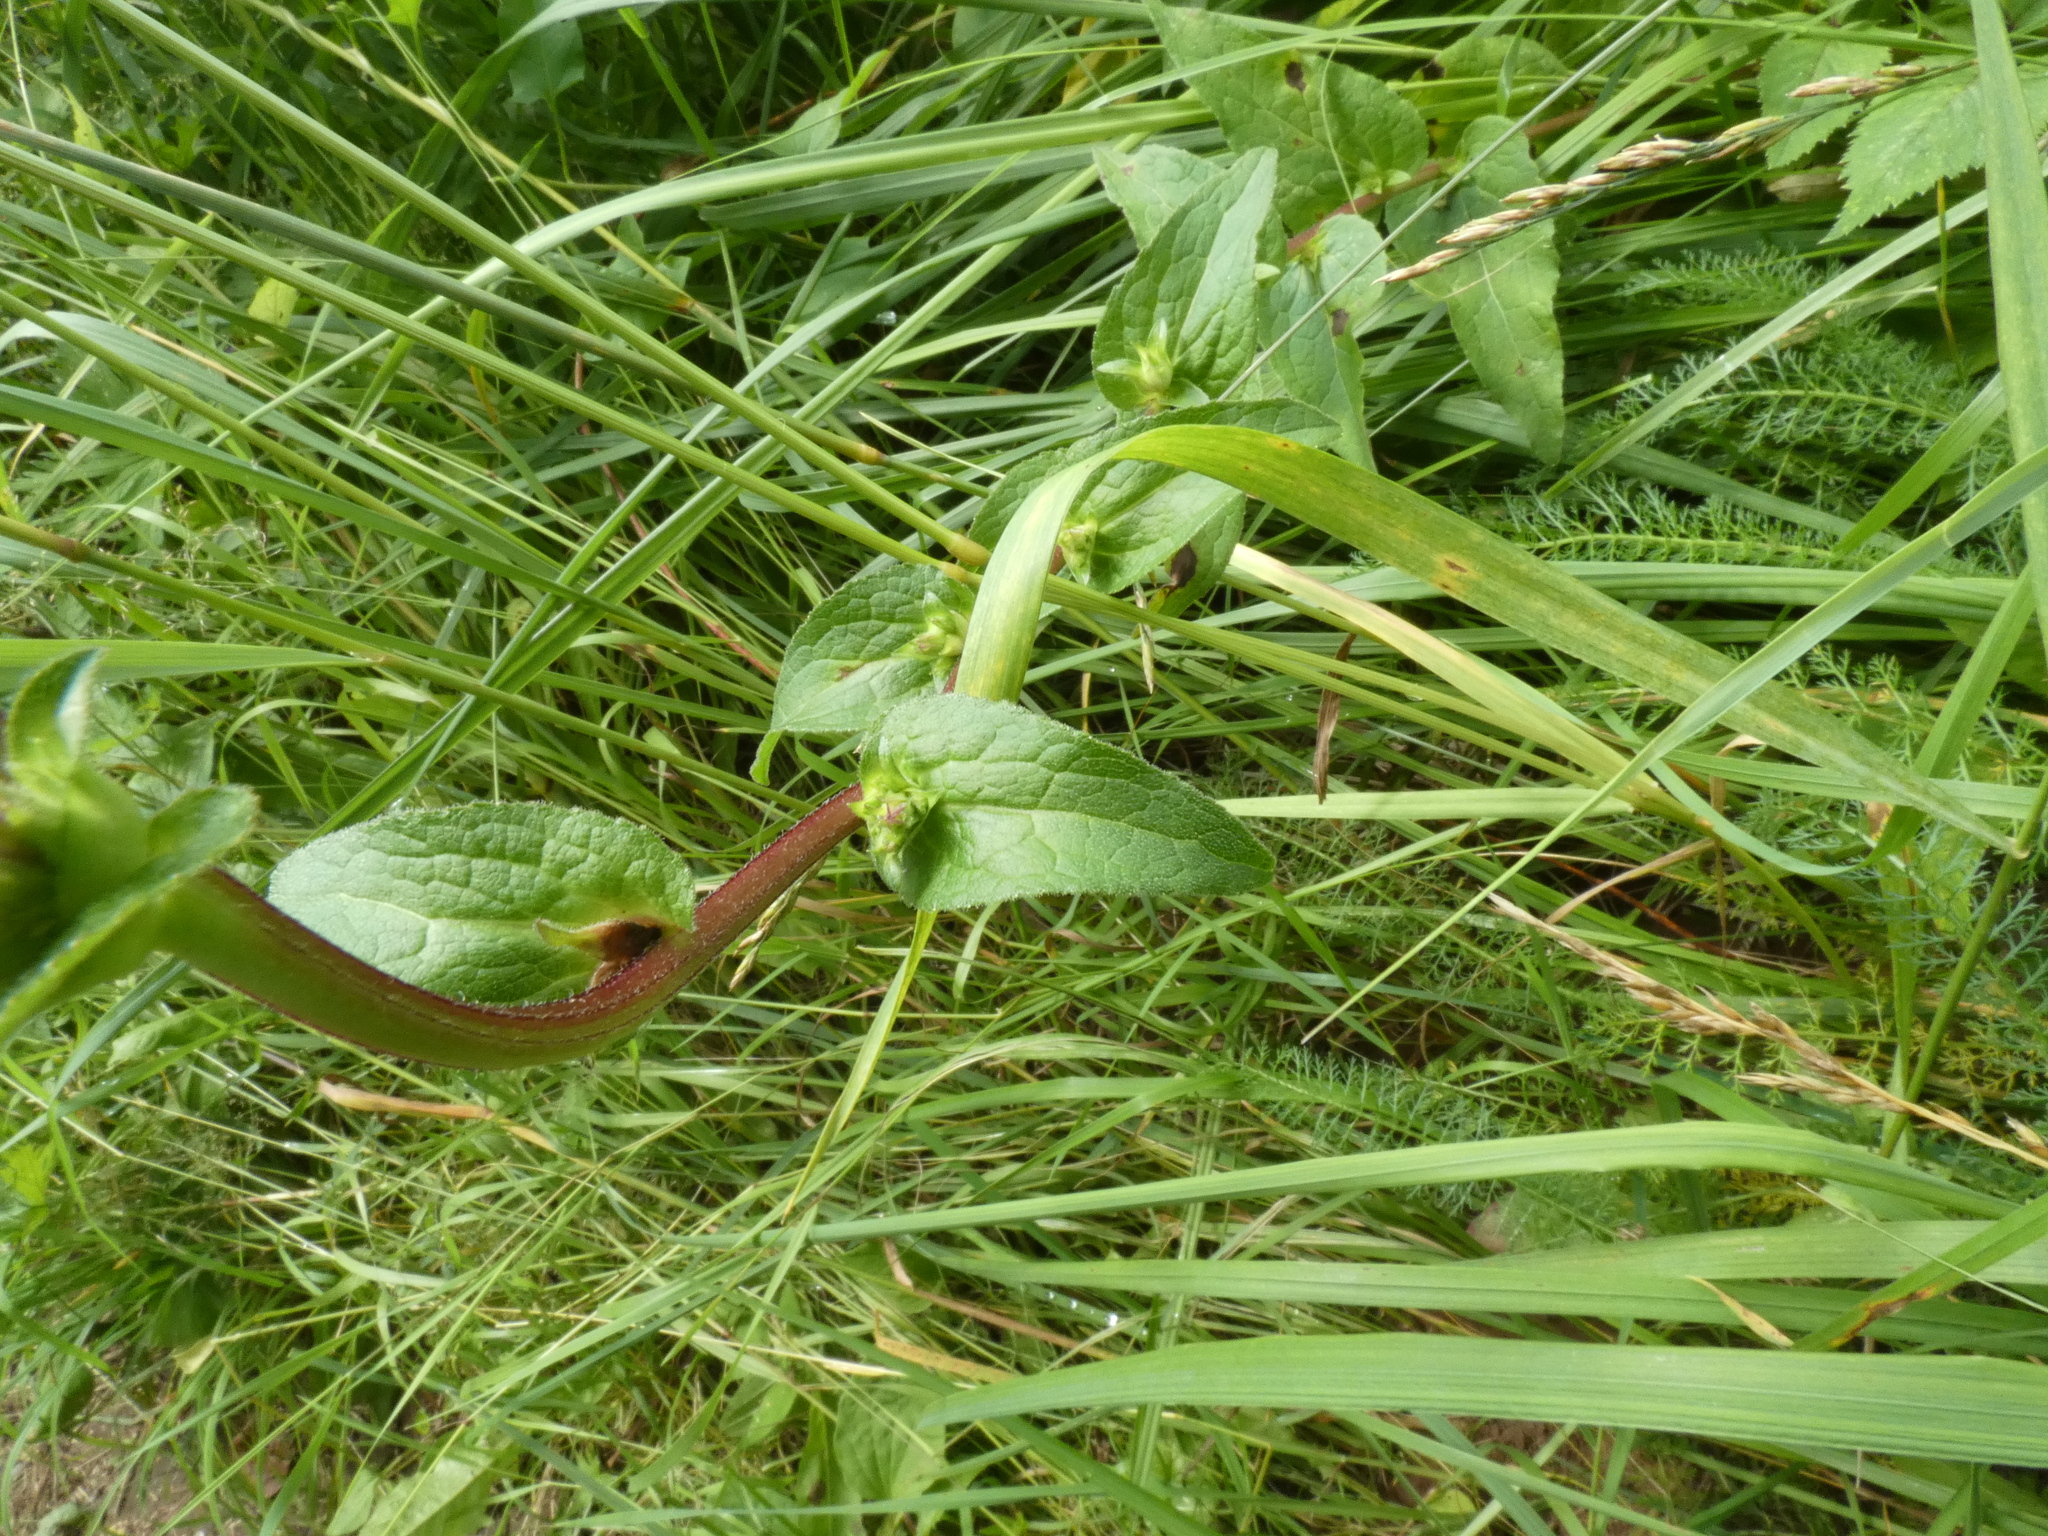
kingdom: Plantae
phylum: Tracheophyta
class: Magnoliopsida
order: Asterales
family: Campanulaceae
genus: Campanula
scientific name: Campanula glomerata
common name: Clustered bellflower
